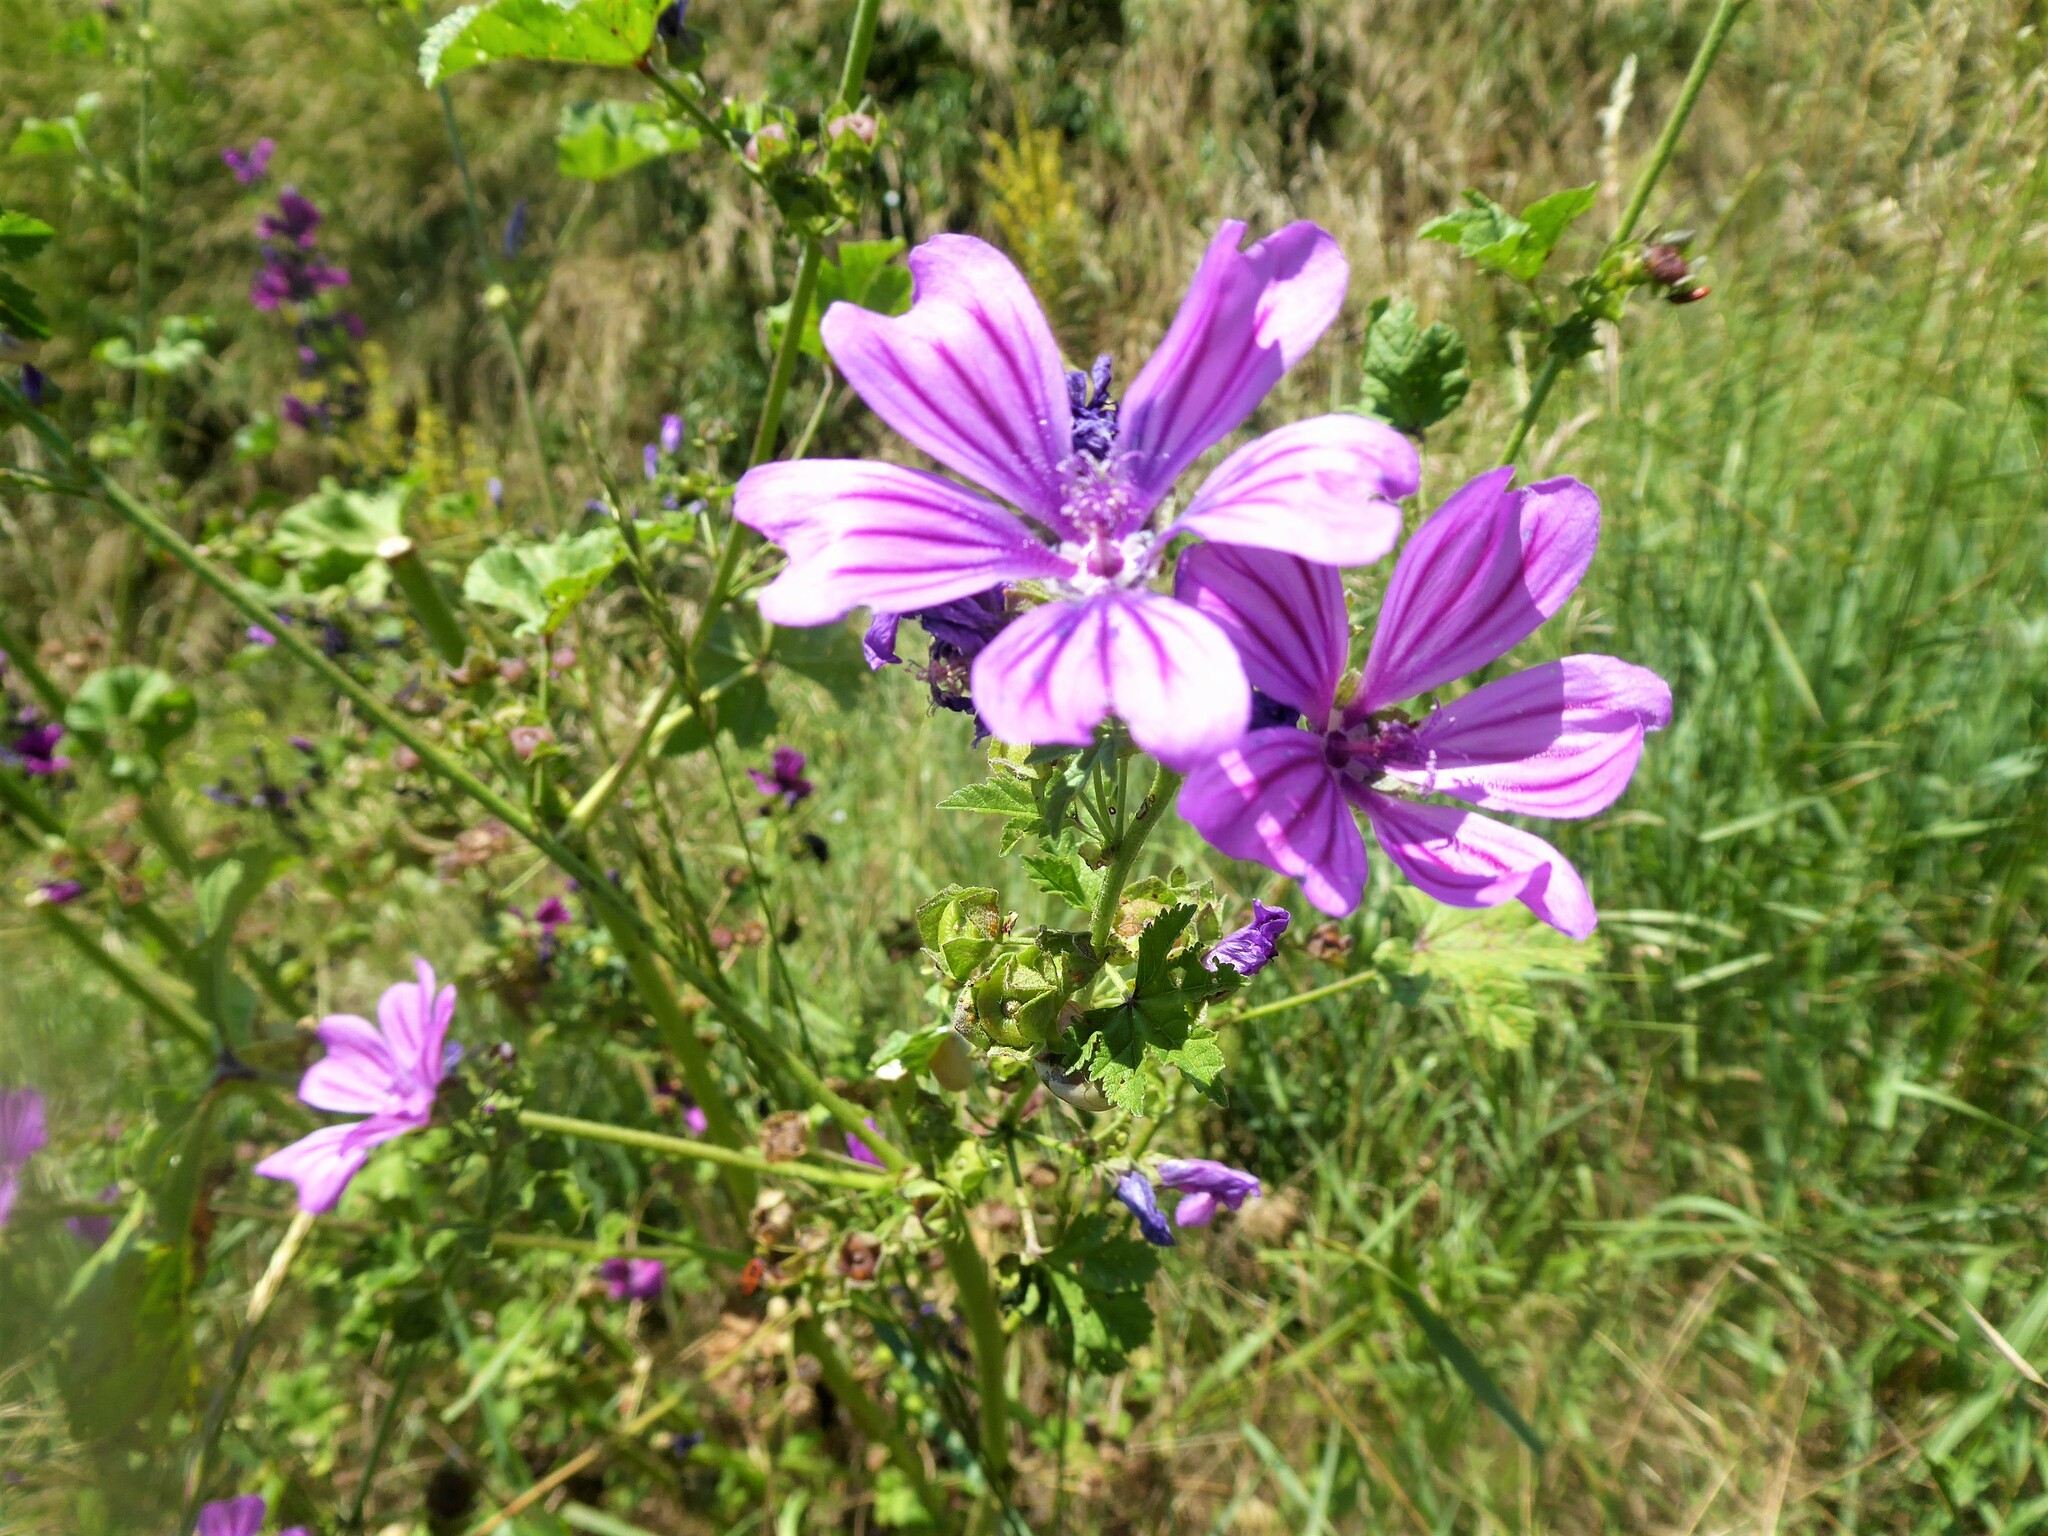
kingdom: Plantae
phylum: Tracheophyta
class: Magnoliopsida
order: Malvales
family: Malvaceae
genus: Malva
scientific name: Malva sylvestris
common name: Common mallow
